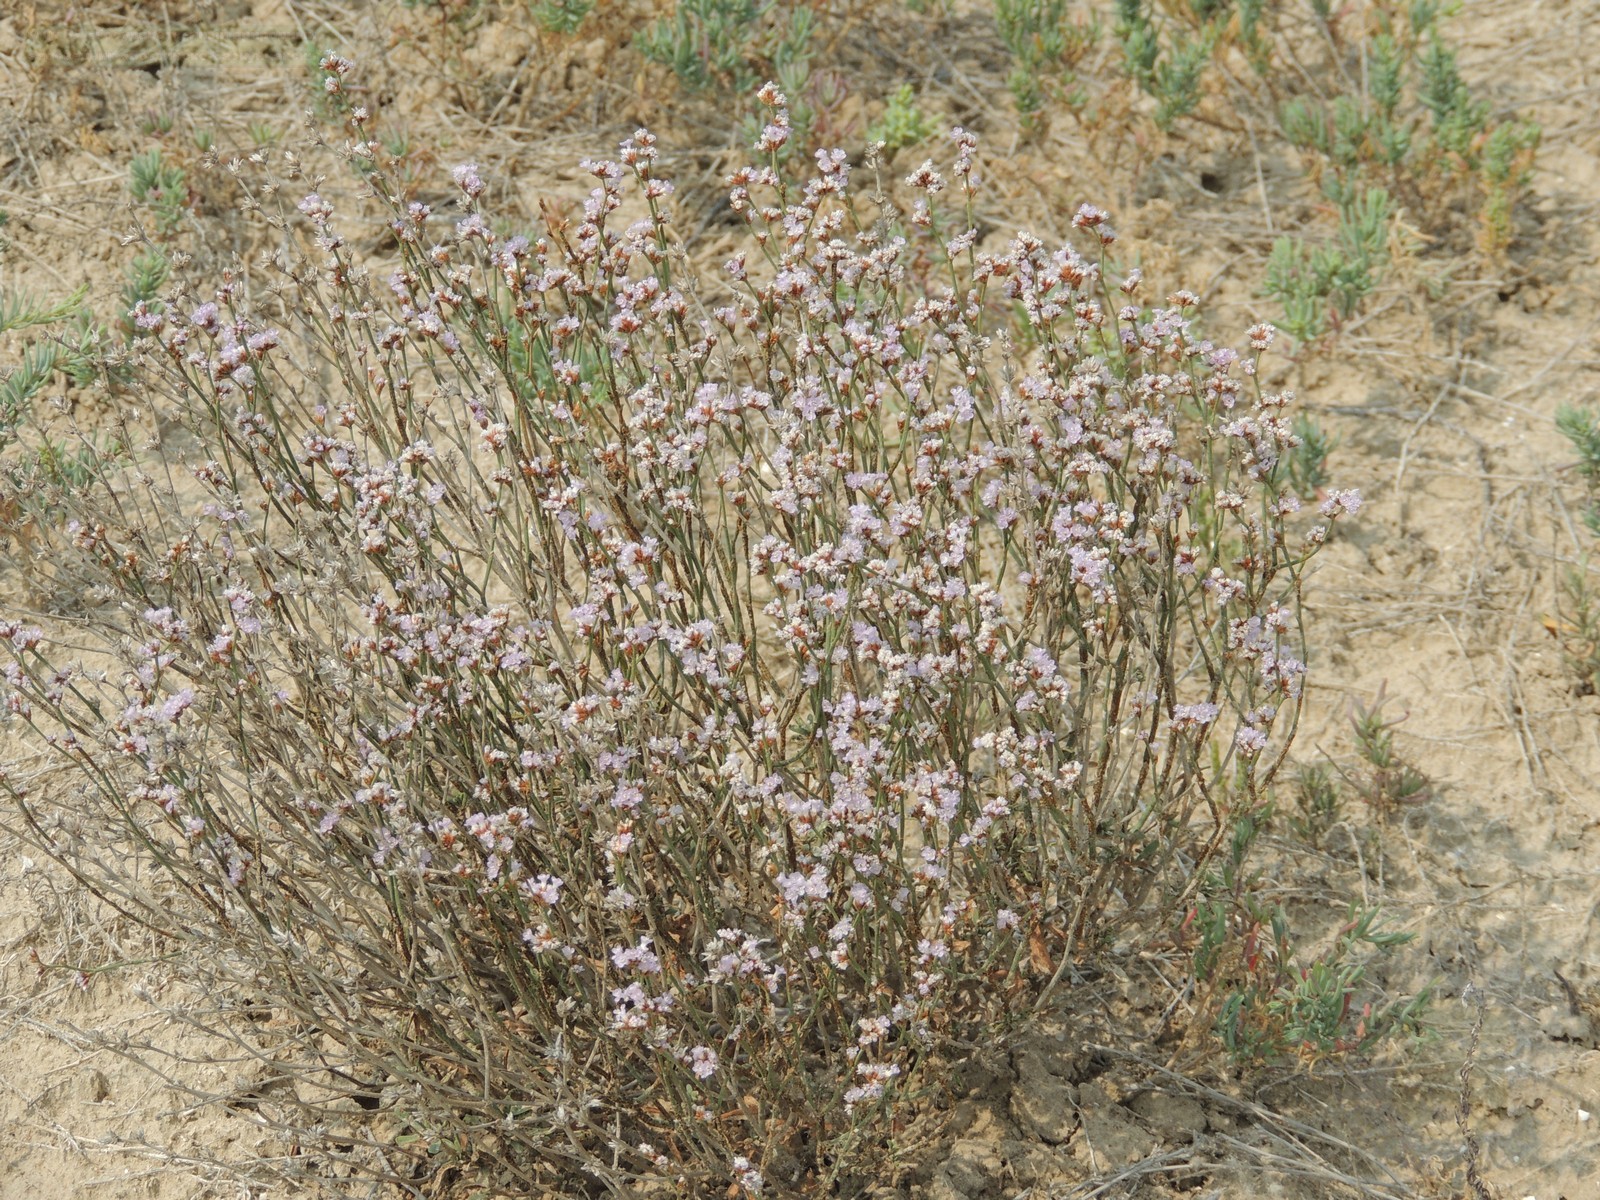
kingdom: Plantae
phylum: Tracheophyta
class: Magnoliopsida
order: Caryophyllales
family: Plumbaginaceae
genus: Limonium
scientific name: Limonium suffruticosum
